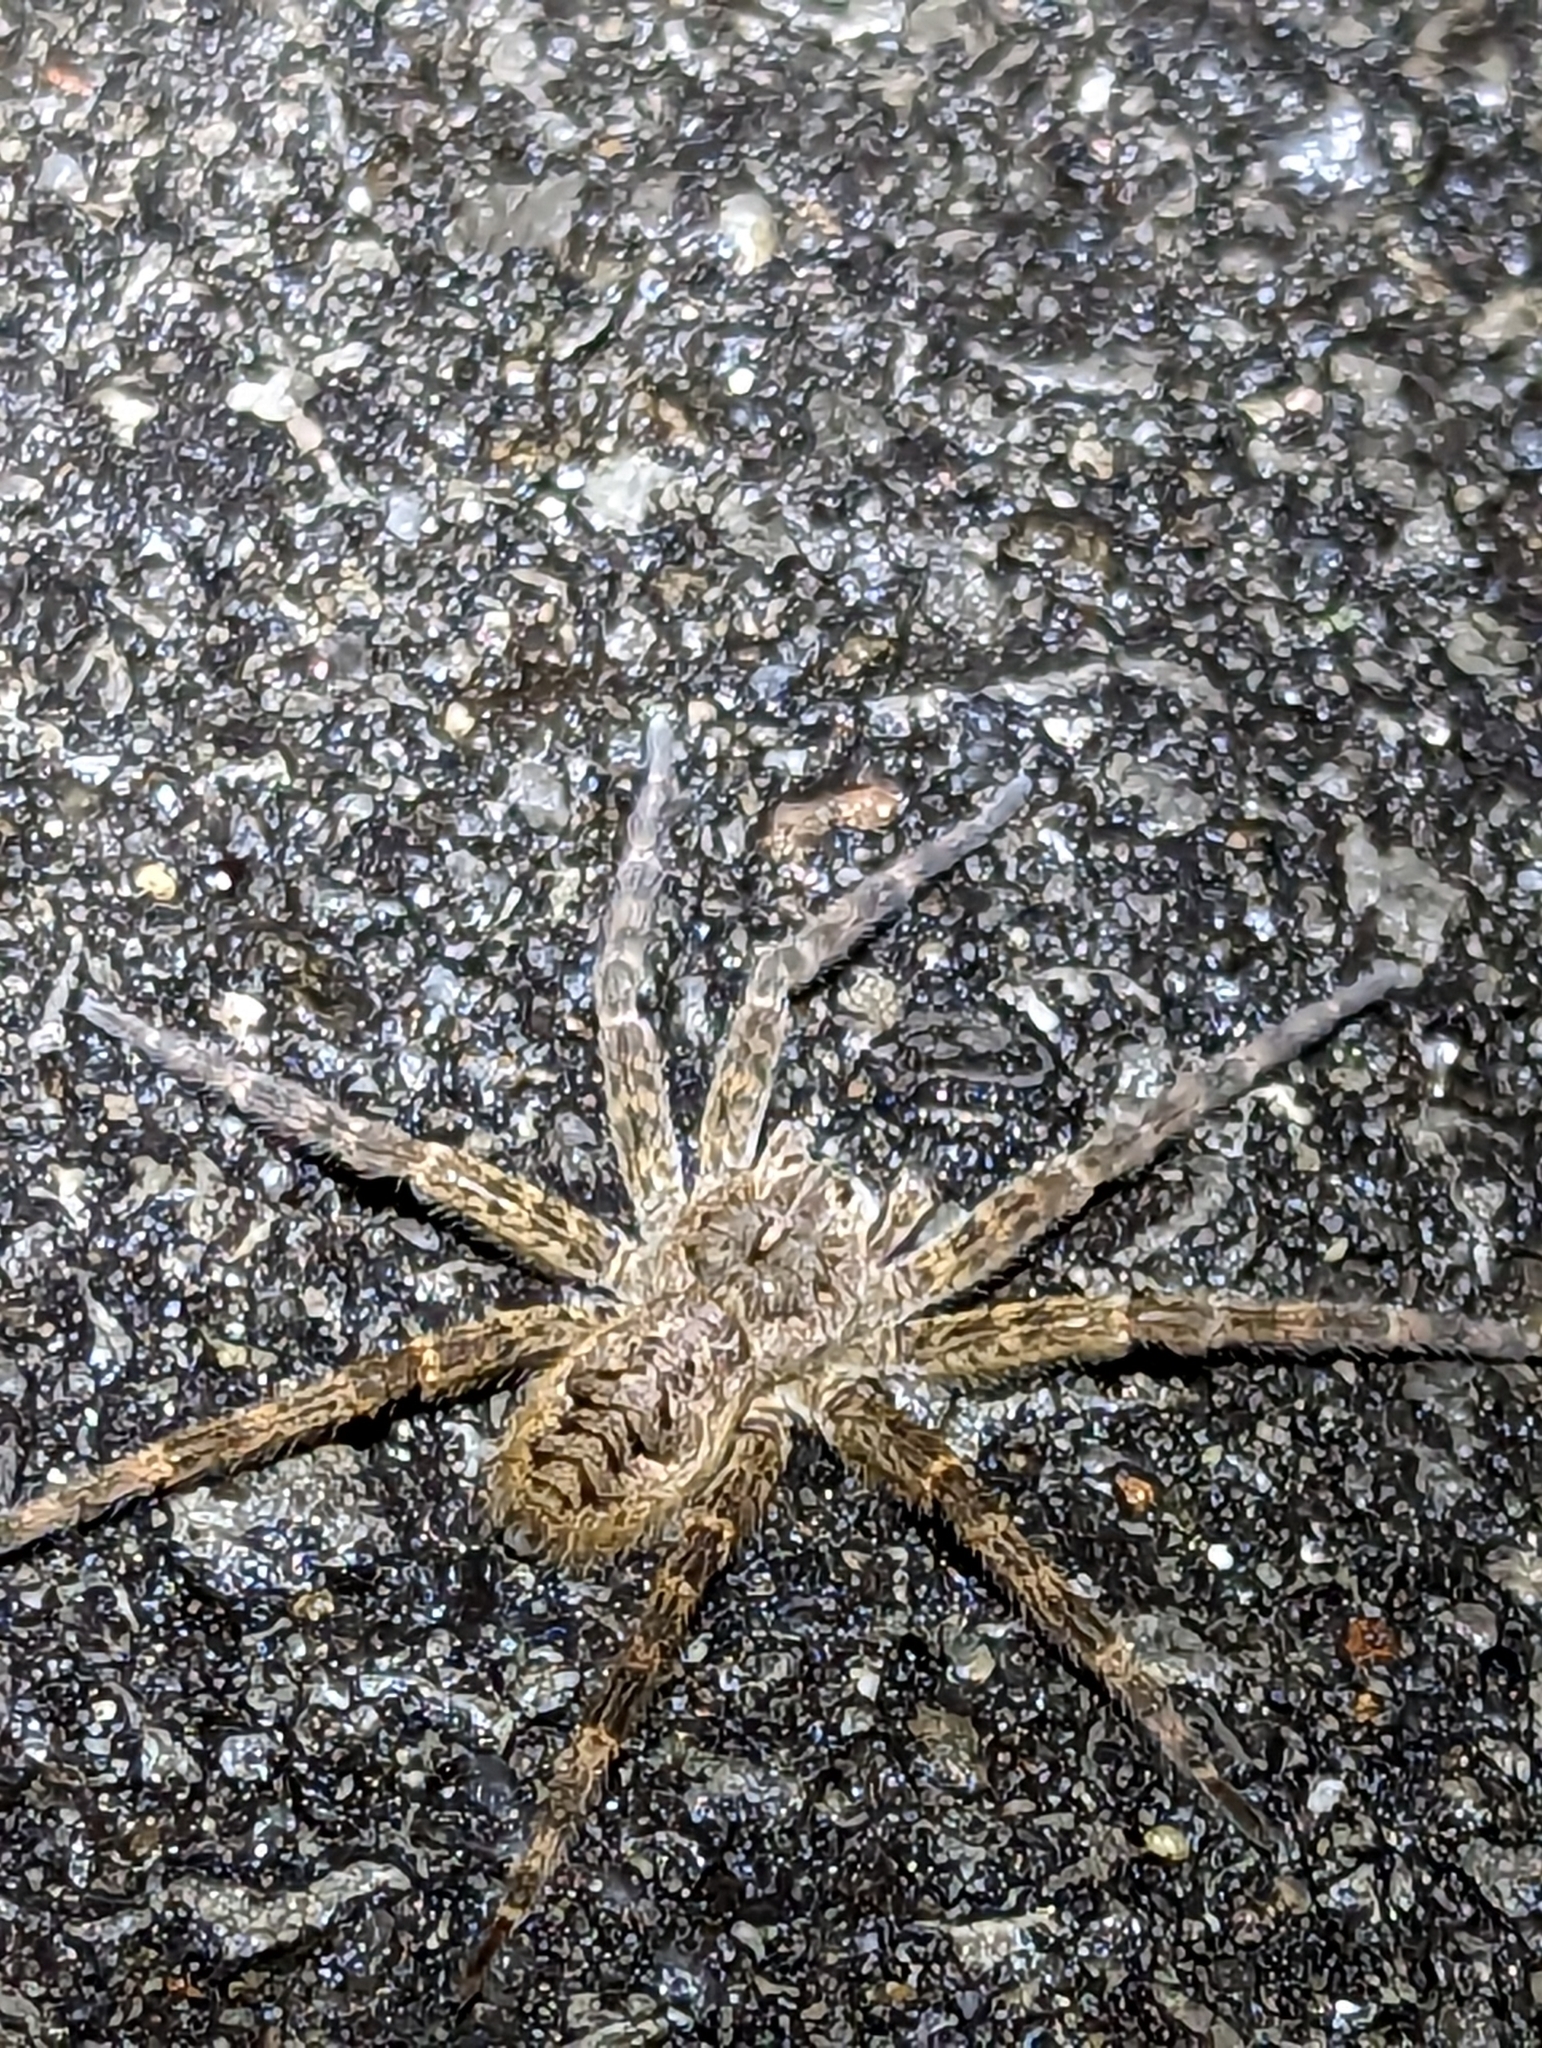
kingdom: Animalia
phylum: Arthropoda
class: Arachnida
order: Araneae
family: Pisauridae
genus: Dolomedes
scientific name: Dolomedes tenebrosus
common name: Dark fishing spider
